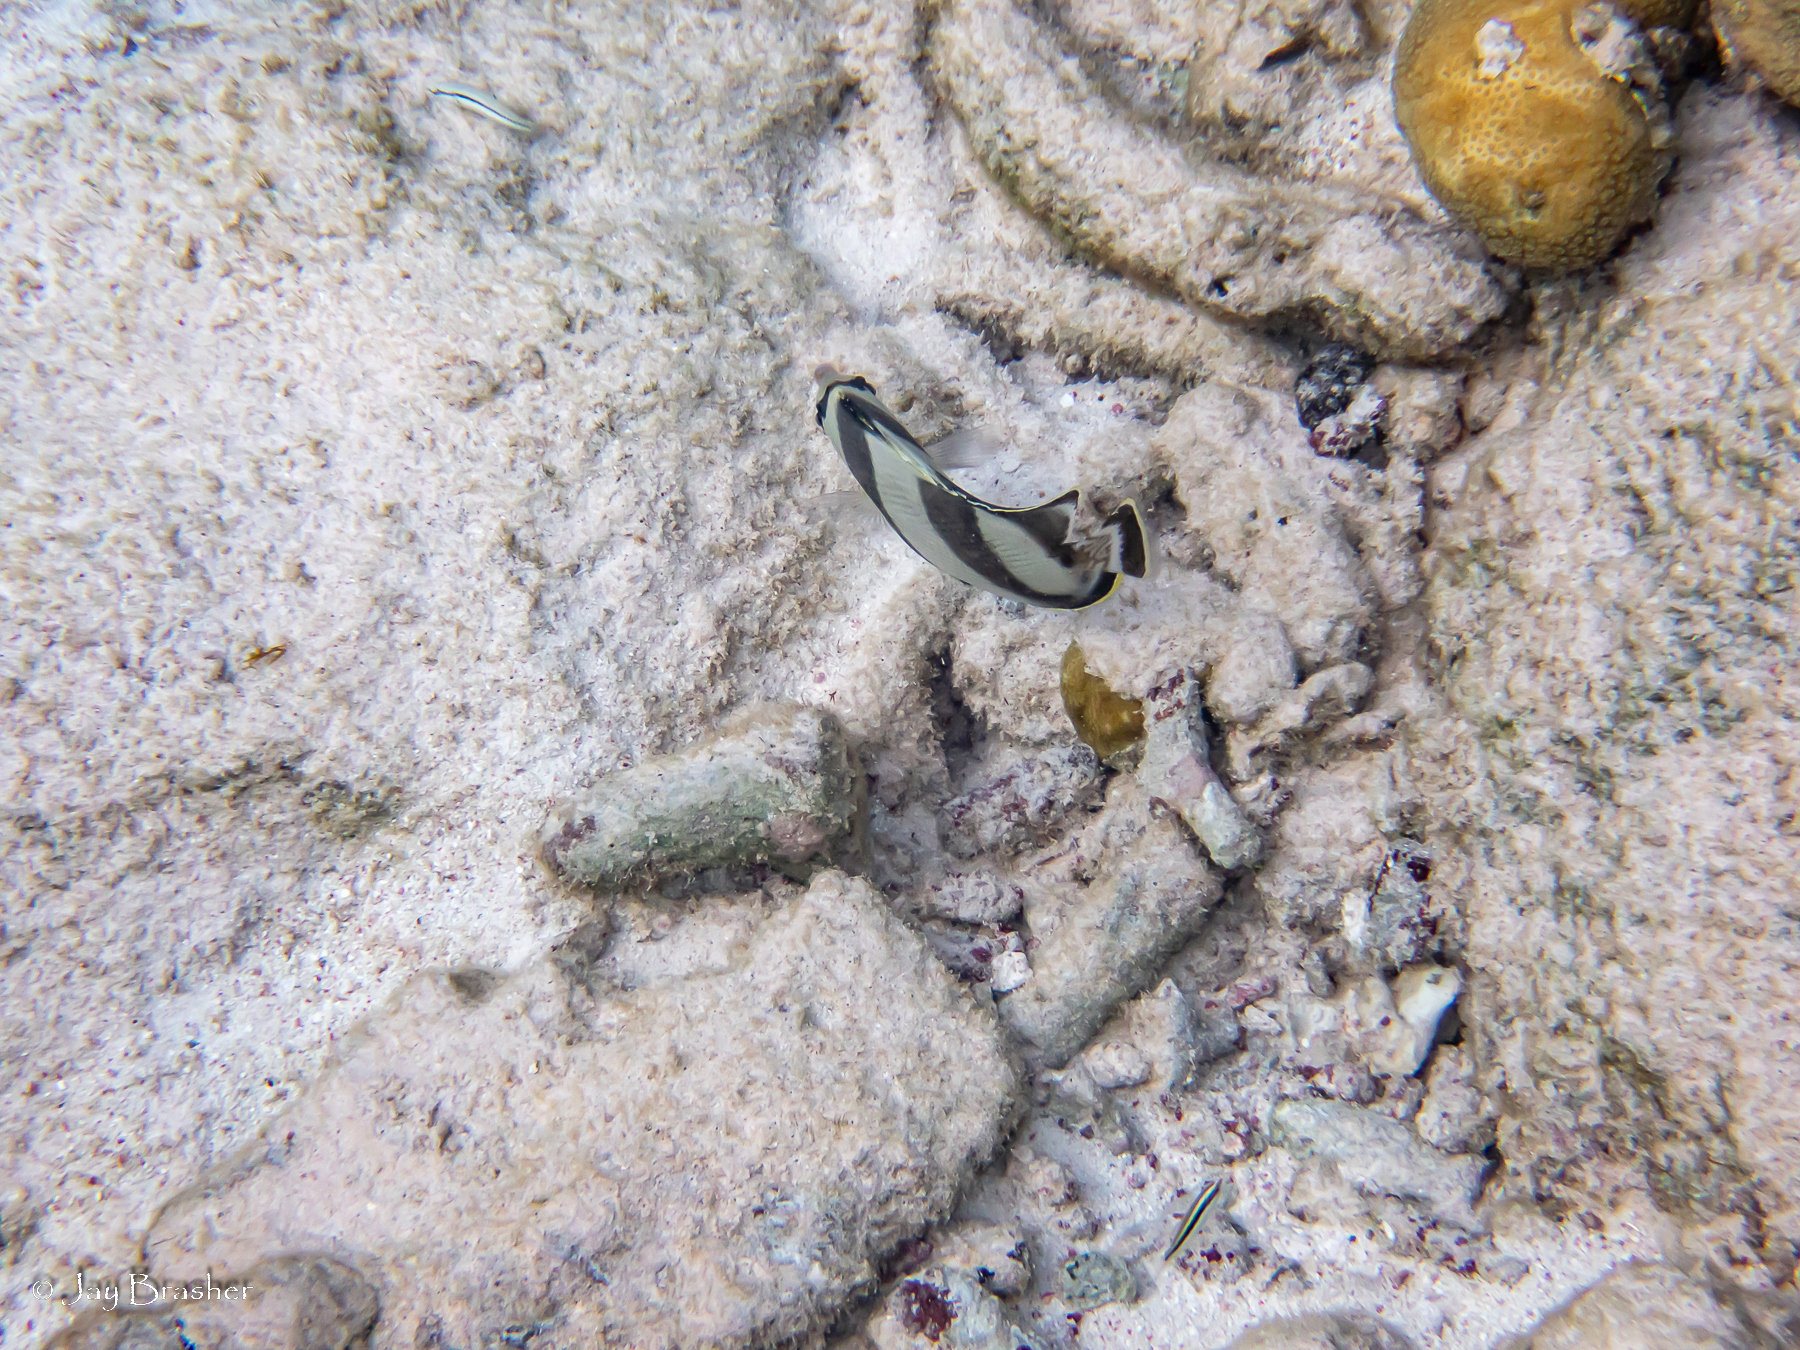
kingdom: Animalia
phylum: Chordata
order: Perciformes
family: Chaetodontidae
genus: Chaetodon
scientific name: Chaetodon striatus
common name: Banded butterflyfish
